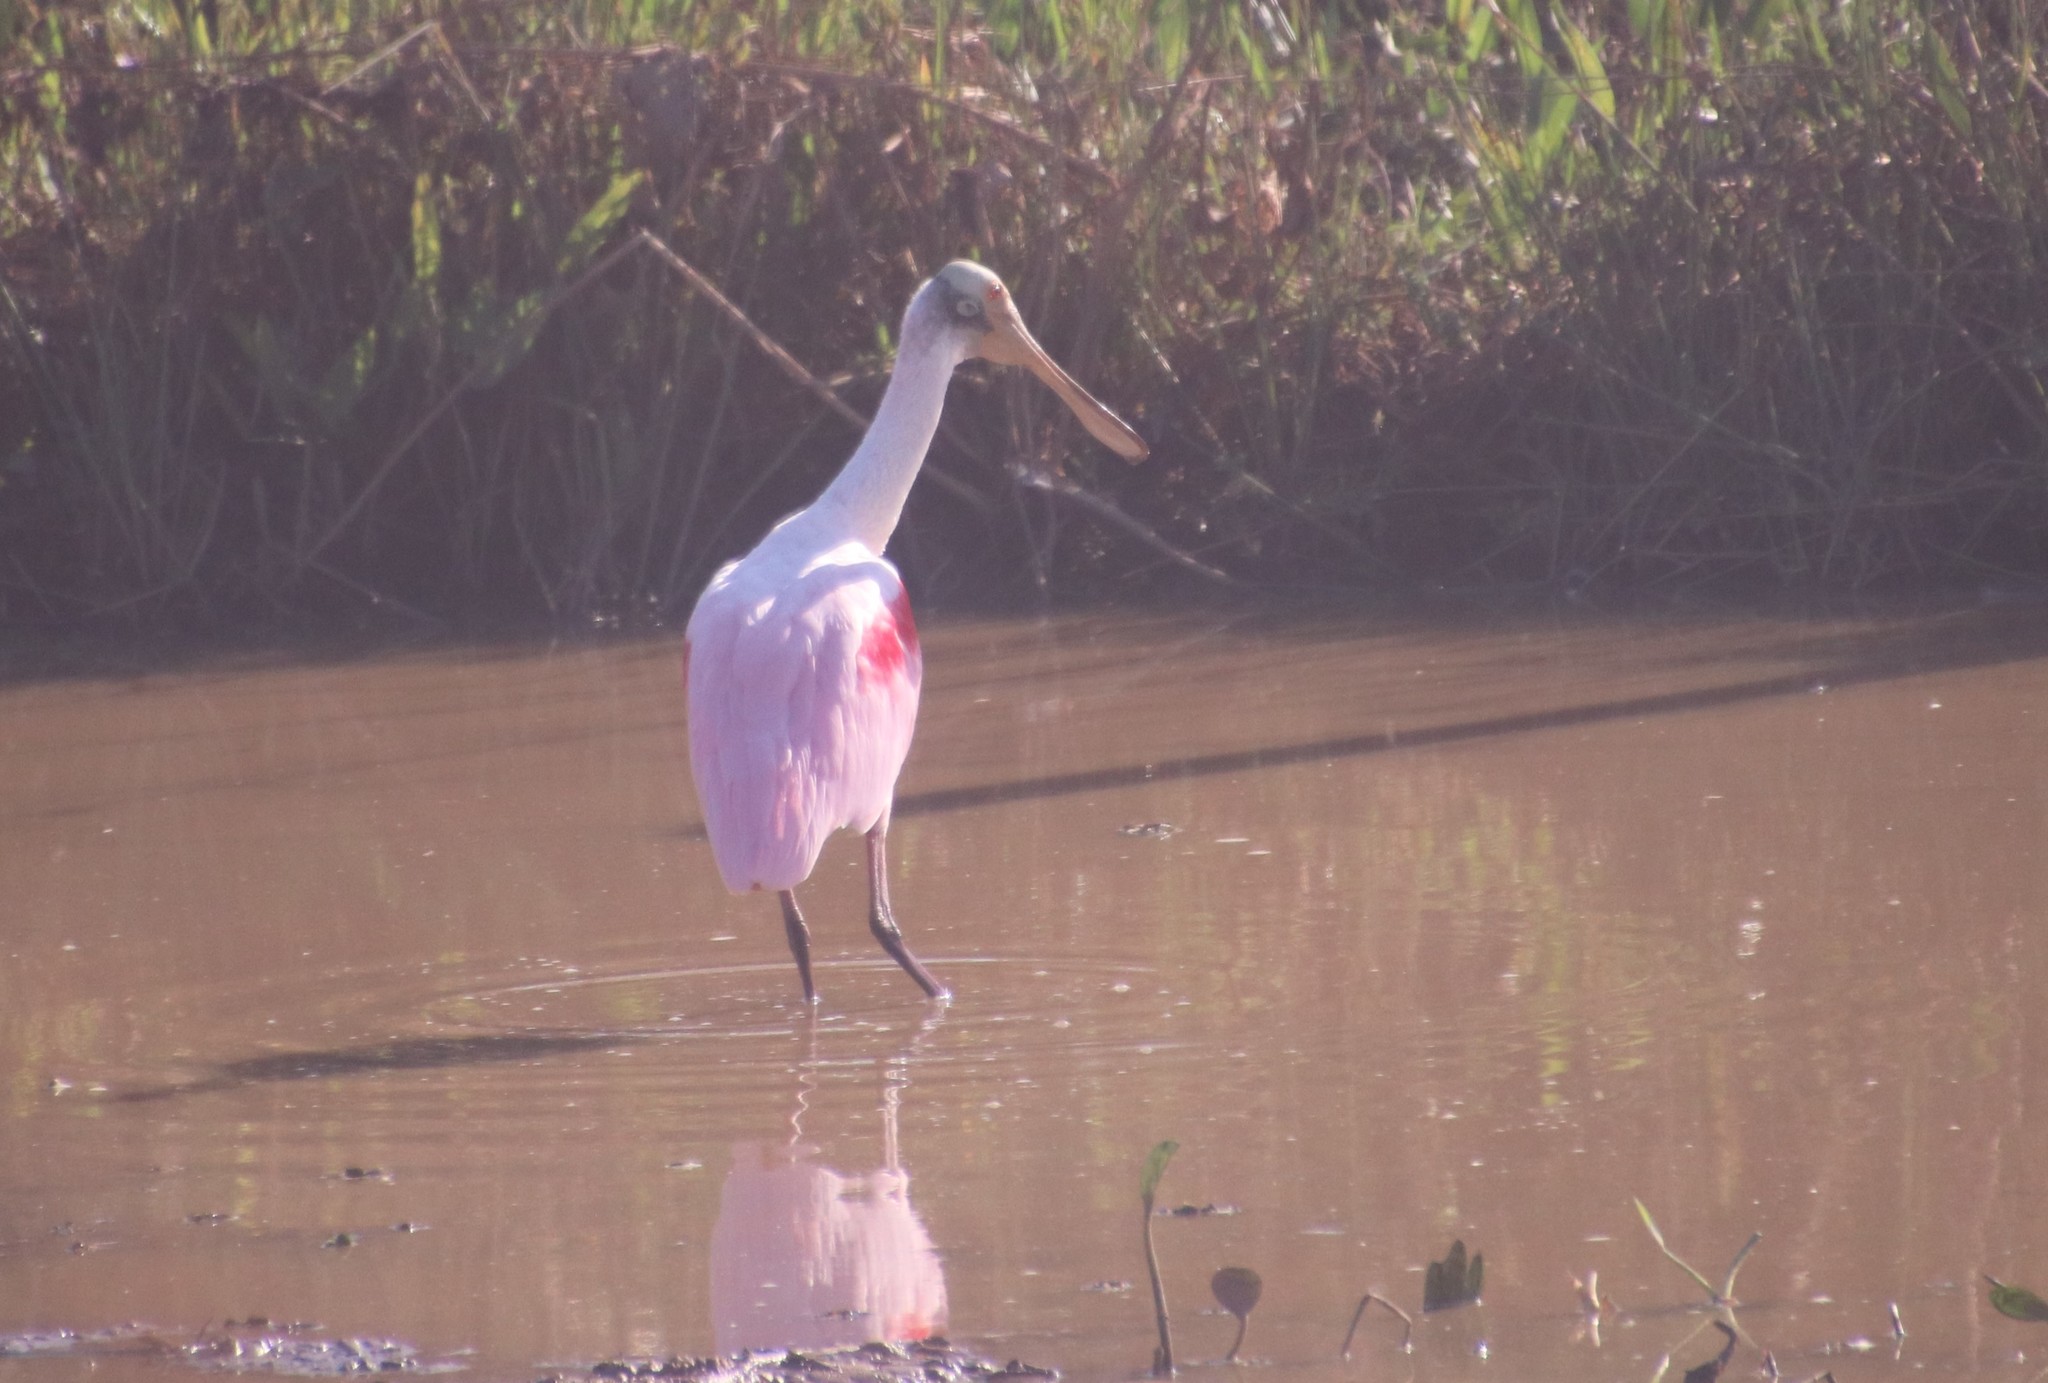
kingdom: Animalia
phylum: Chordata
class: Aves
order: Pelecaniformes
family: Threskiornithidae
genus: Platalea
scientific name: Platalea ajaja
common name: Roseate spoonbill
